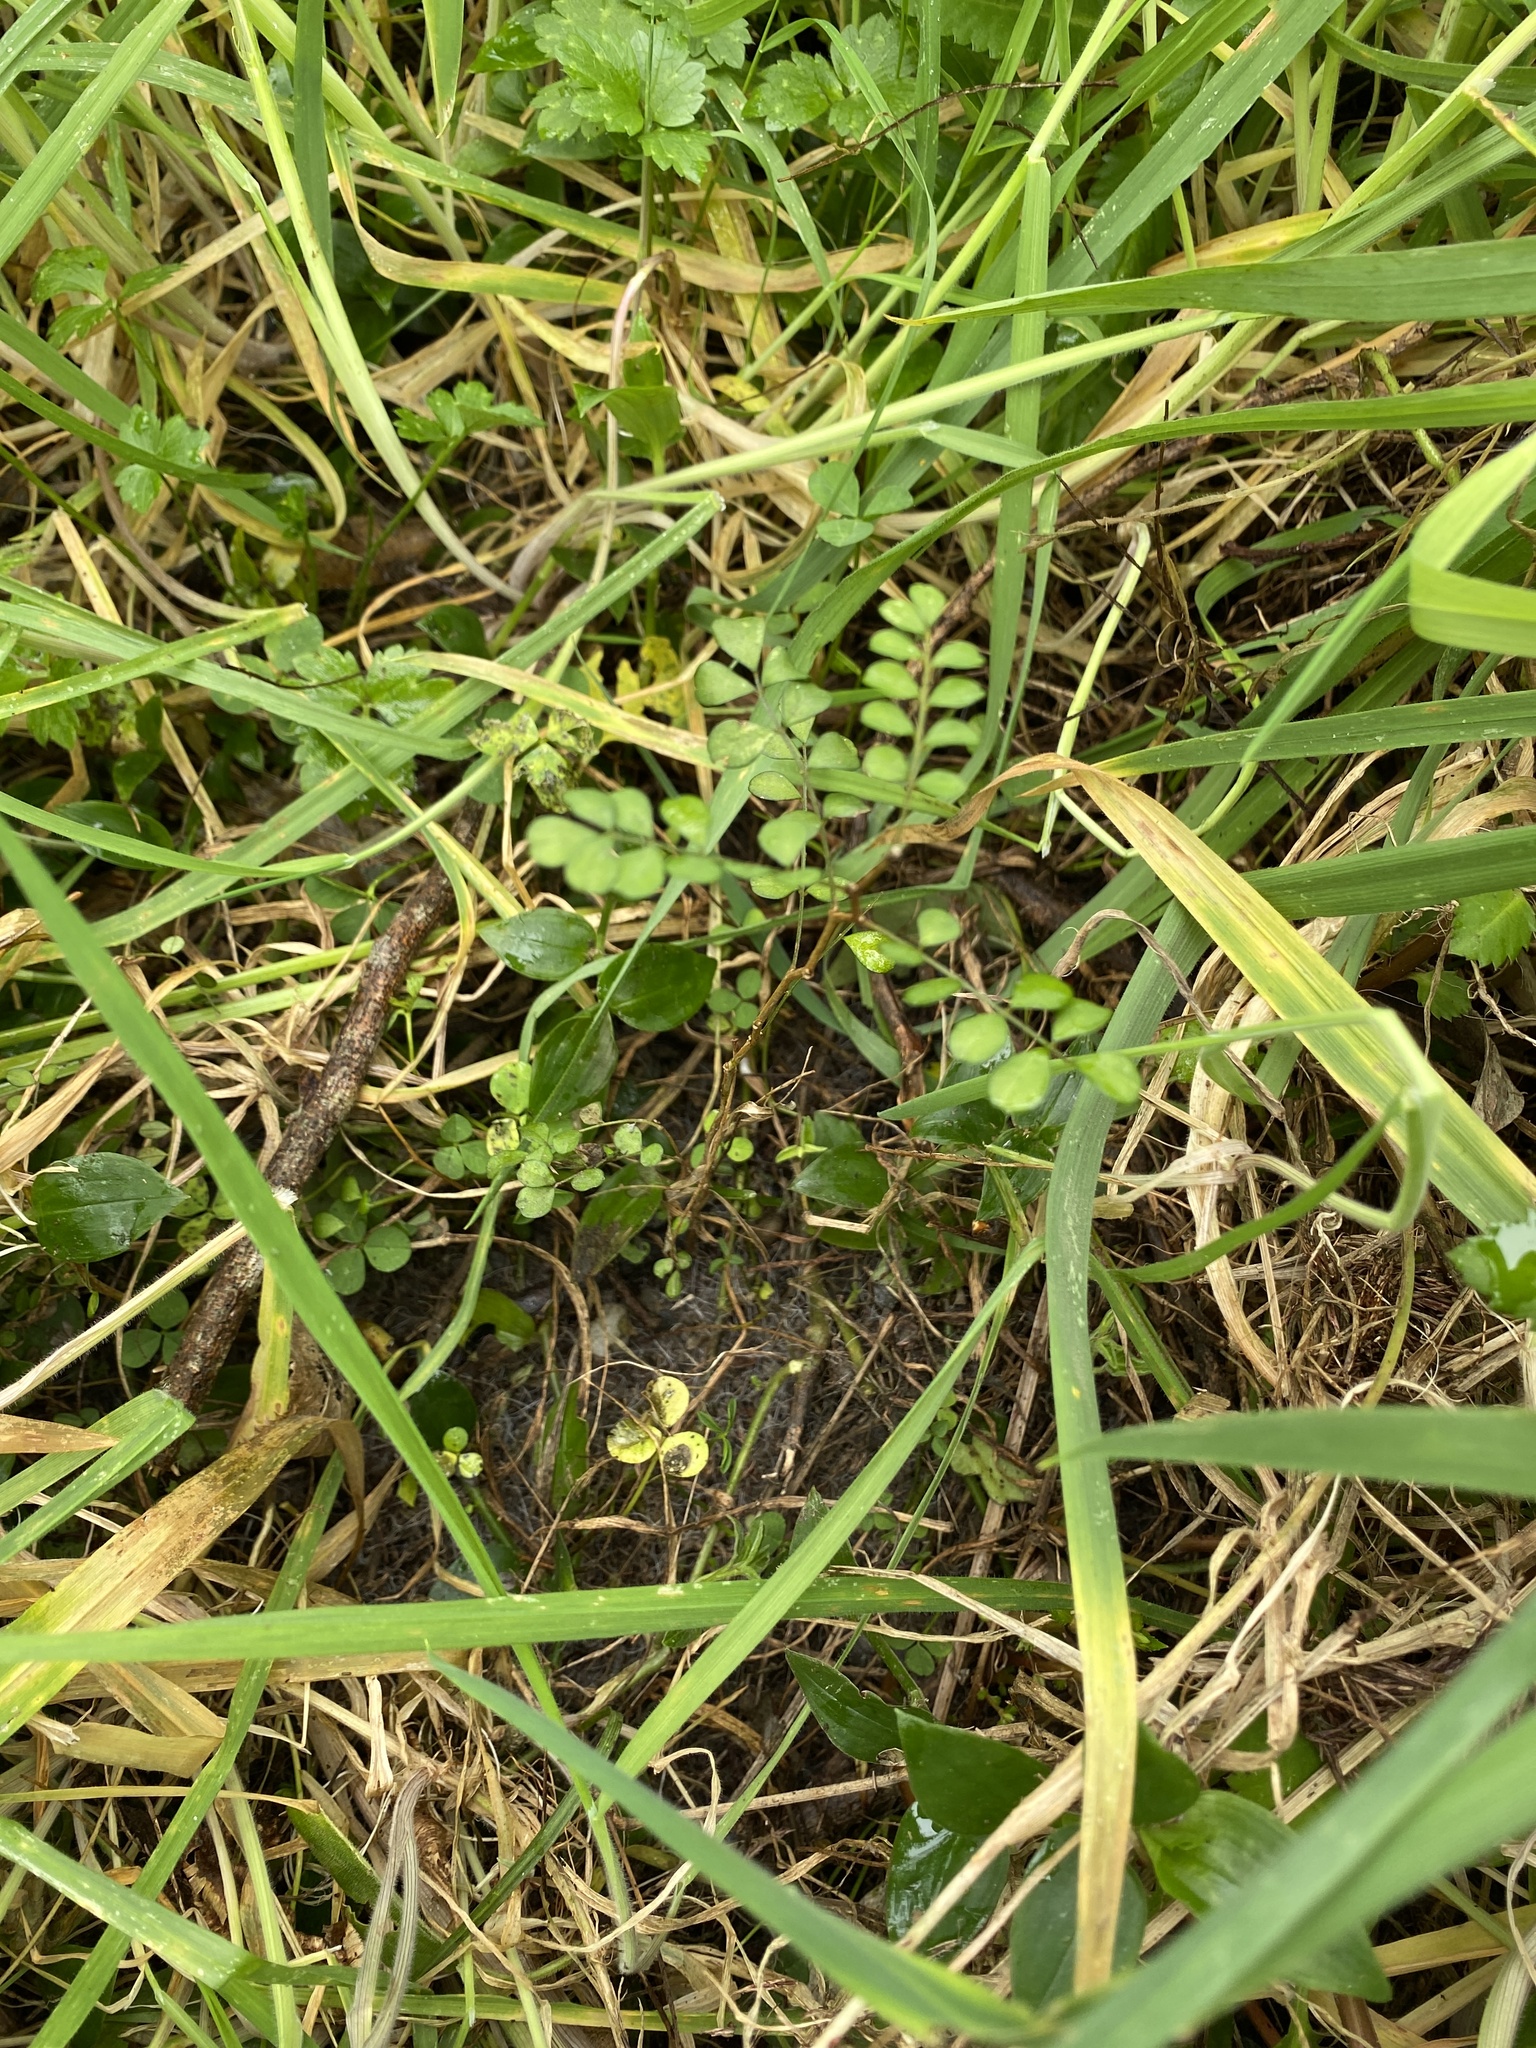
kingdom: Plantae
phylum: Tracheophyta
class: Magnoliopsida
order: Fabales
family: Fabaceae
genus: Sophora
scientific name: Sophora microphylla
